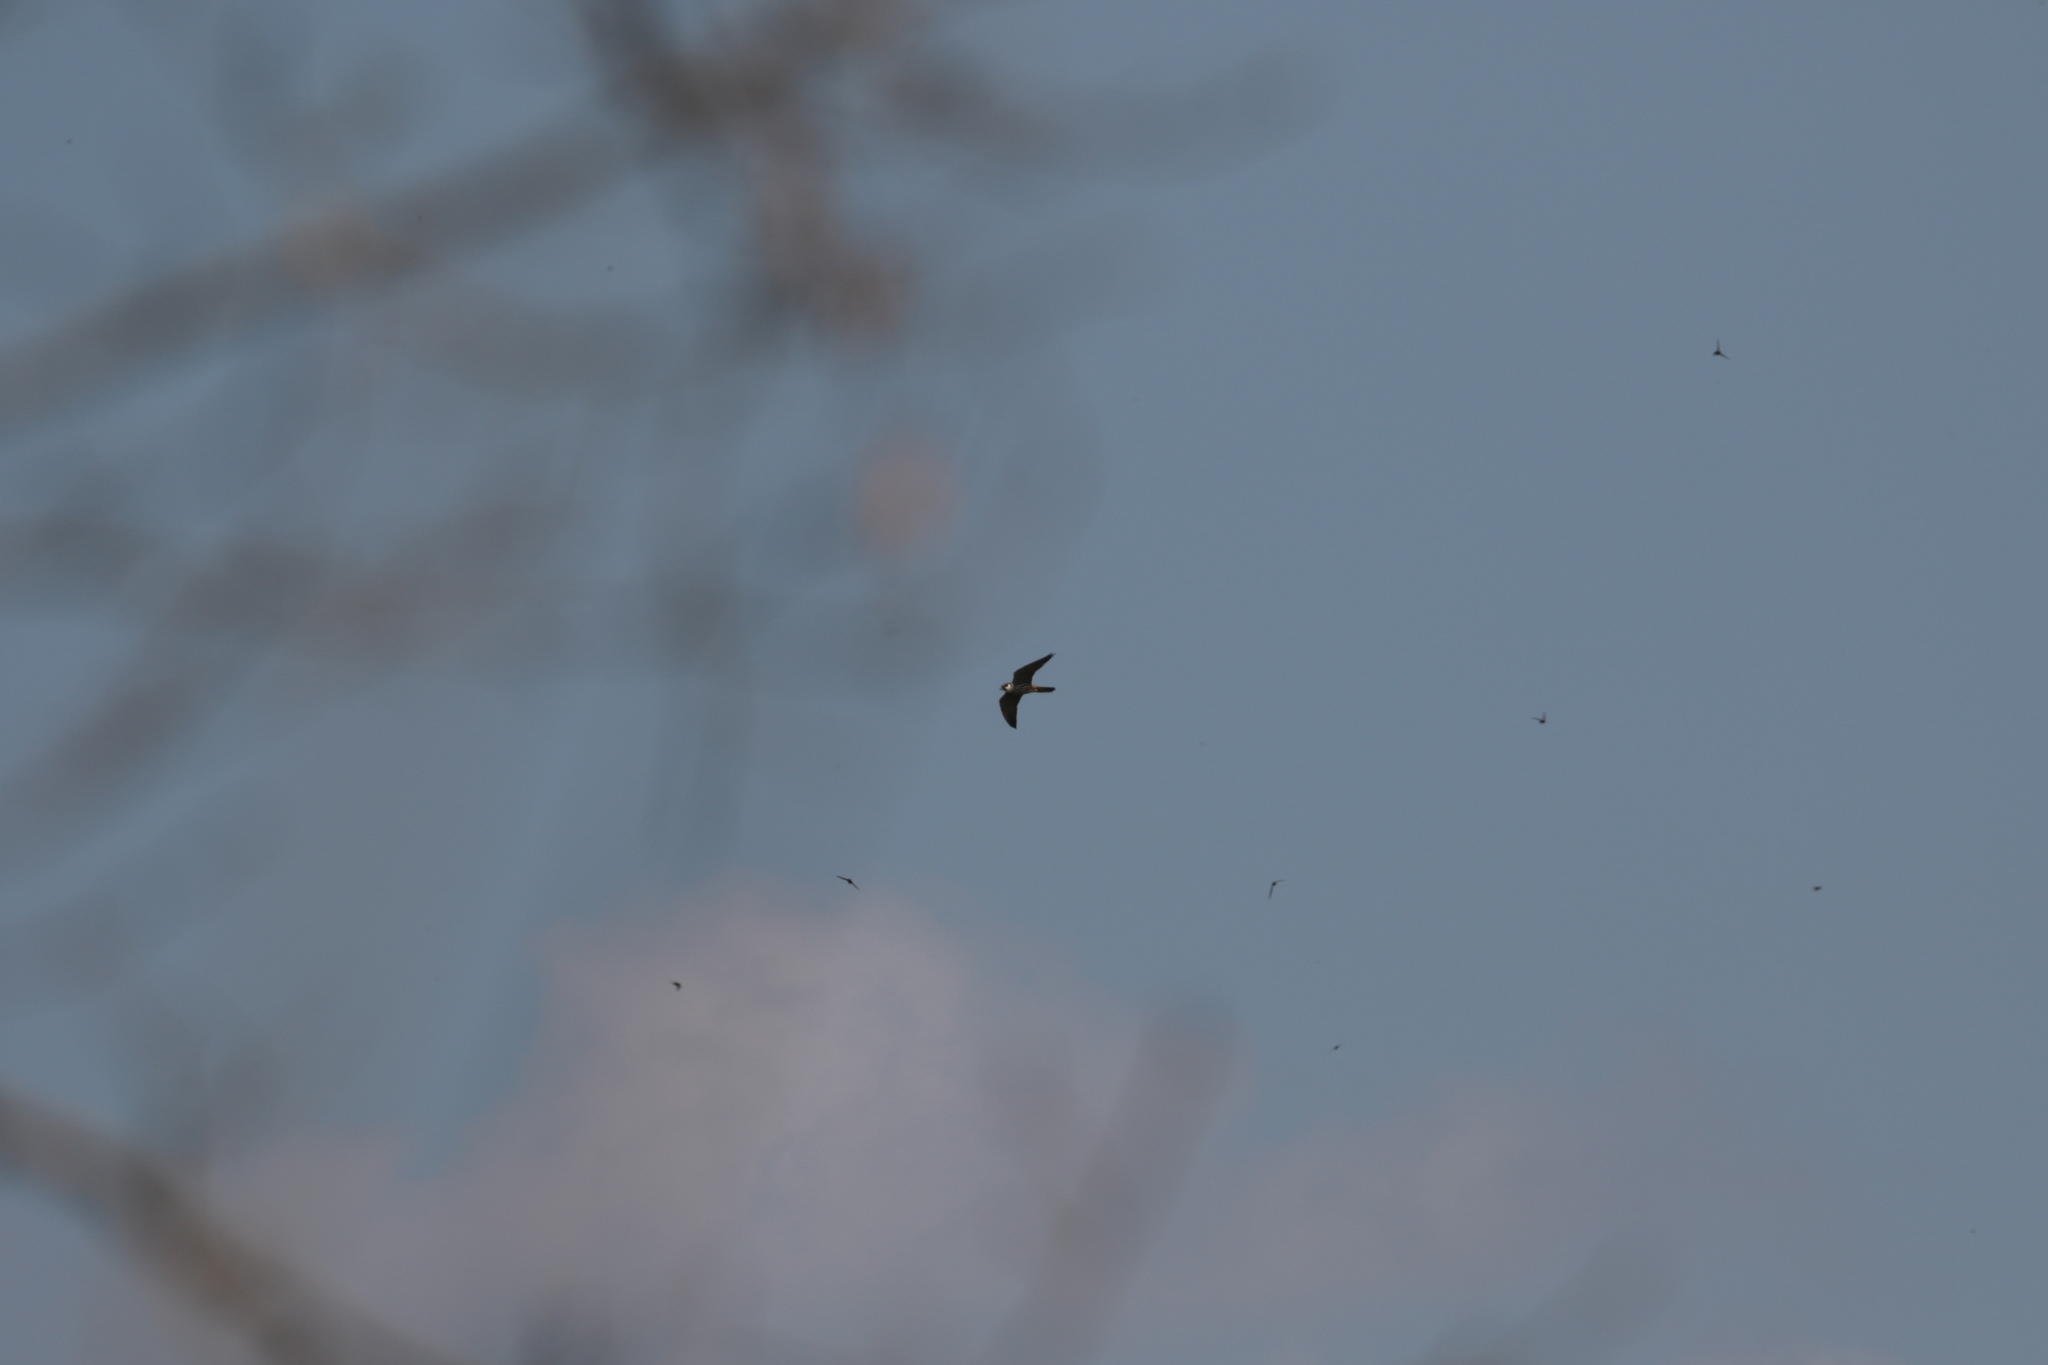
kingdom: Animalia
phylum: Chordata
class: Aves
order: Falconiformes
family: Falconidae
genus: Falco
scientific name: Falco subbuteo
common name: Eurasian hobby
